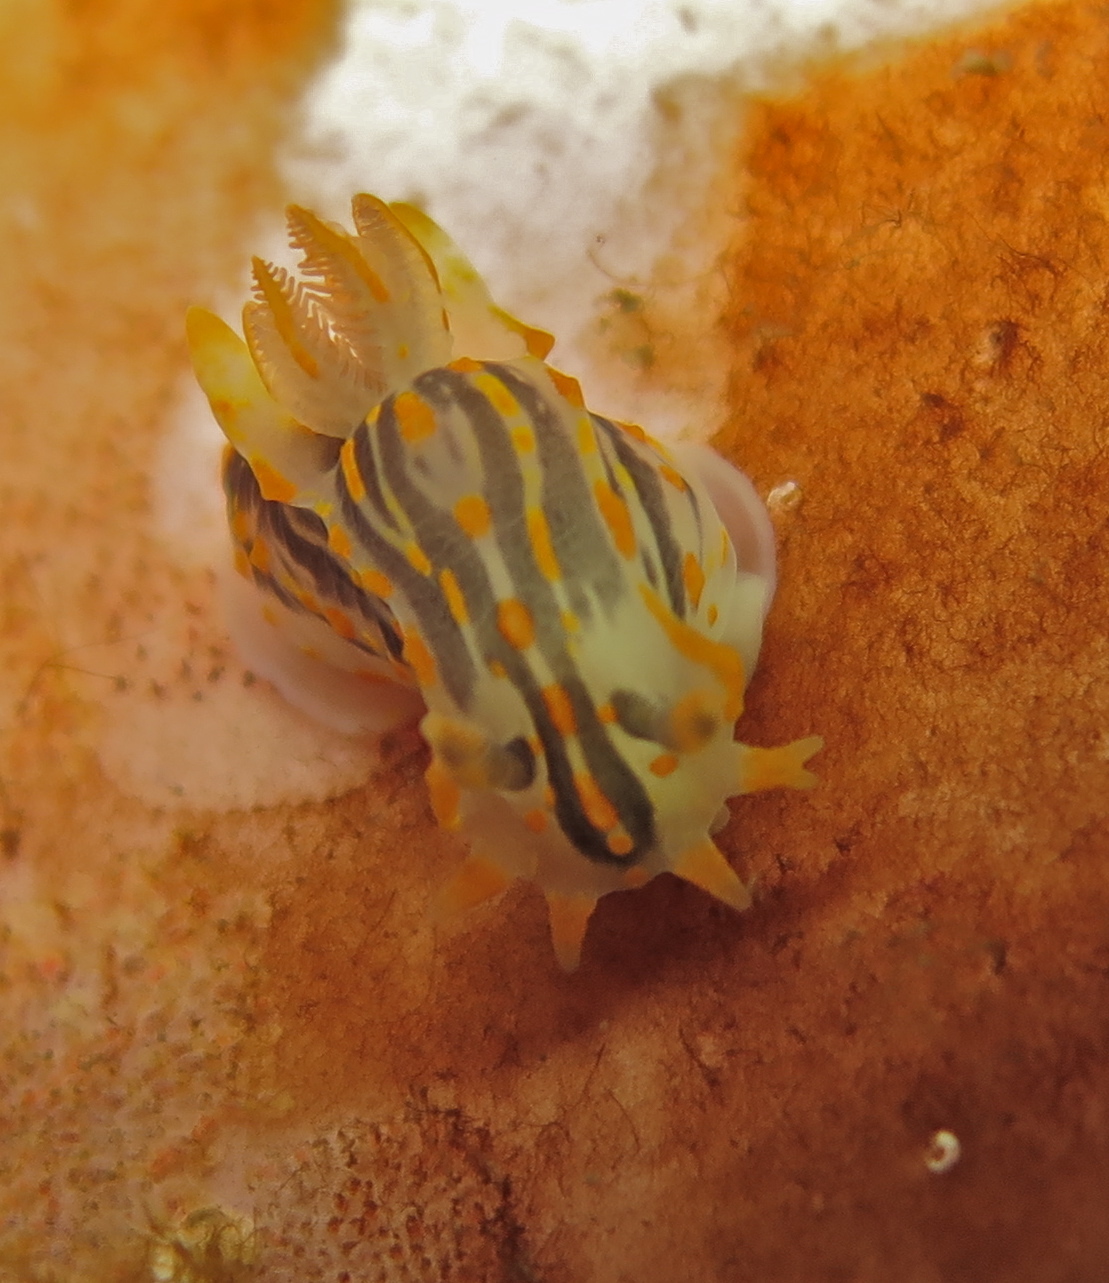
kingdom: Animalia
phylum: Mollusca
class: Gastropoda
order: Nudibranchia
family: Polyceridae
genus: Polycera
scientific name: Polycera quadrilineata
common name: Four-striped polycera
